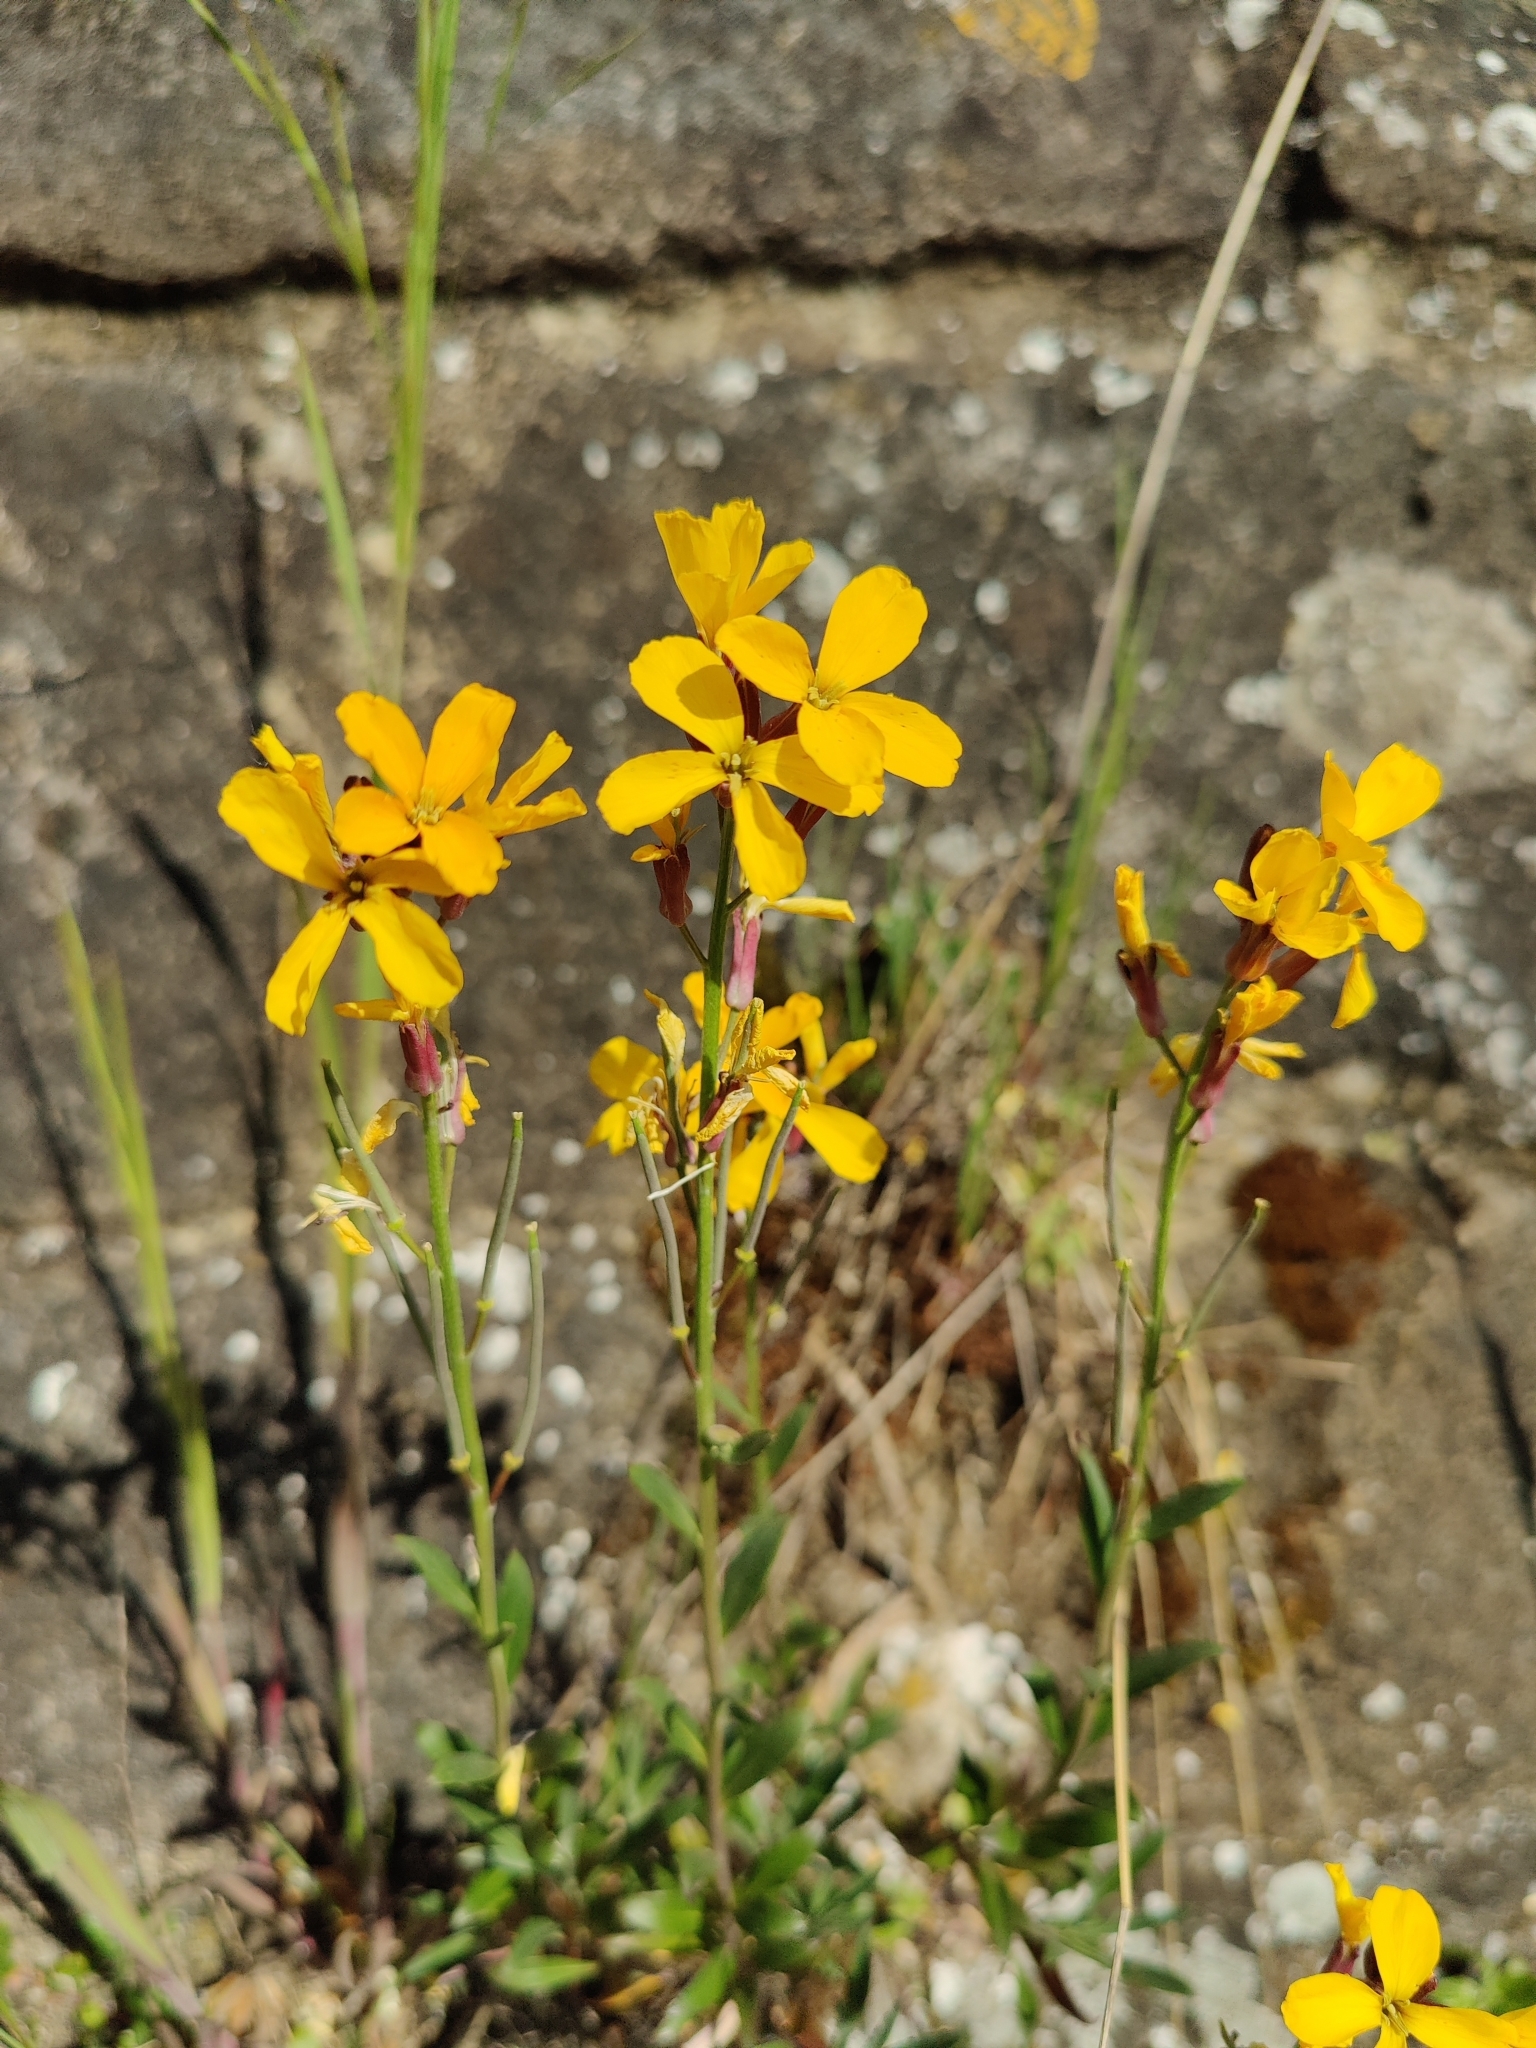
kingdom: Plantae
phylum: Tracheophyta
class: Magnoliopsida
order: Brassicales
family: Brassicaceae
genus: Erysimum
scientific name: Erysimum cheiri
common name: Wallflower
